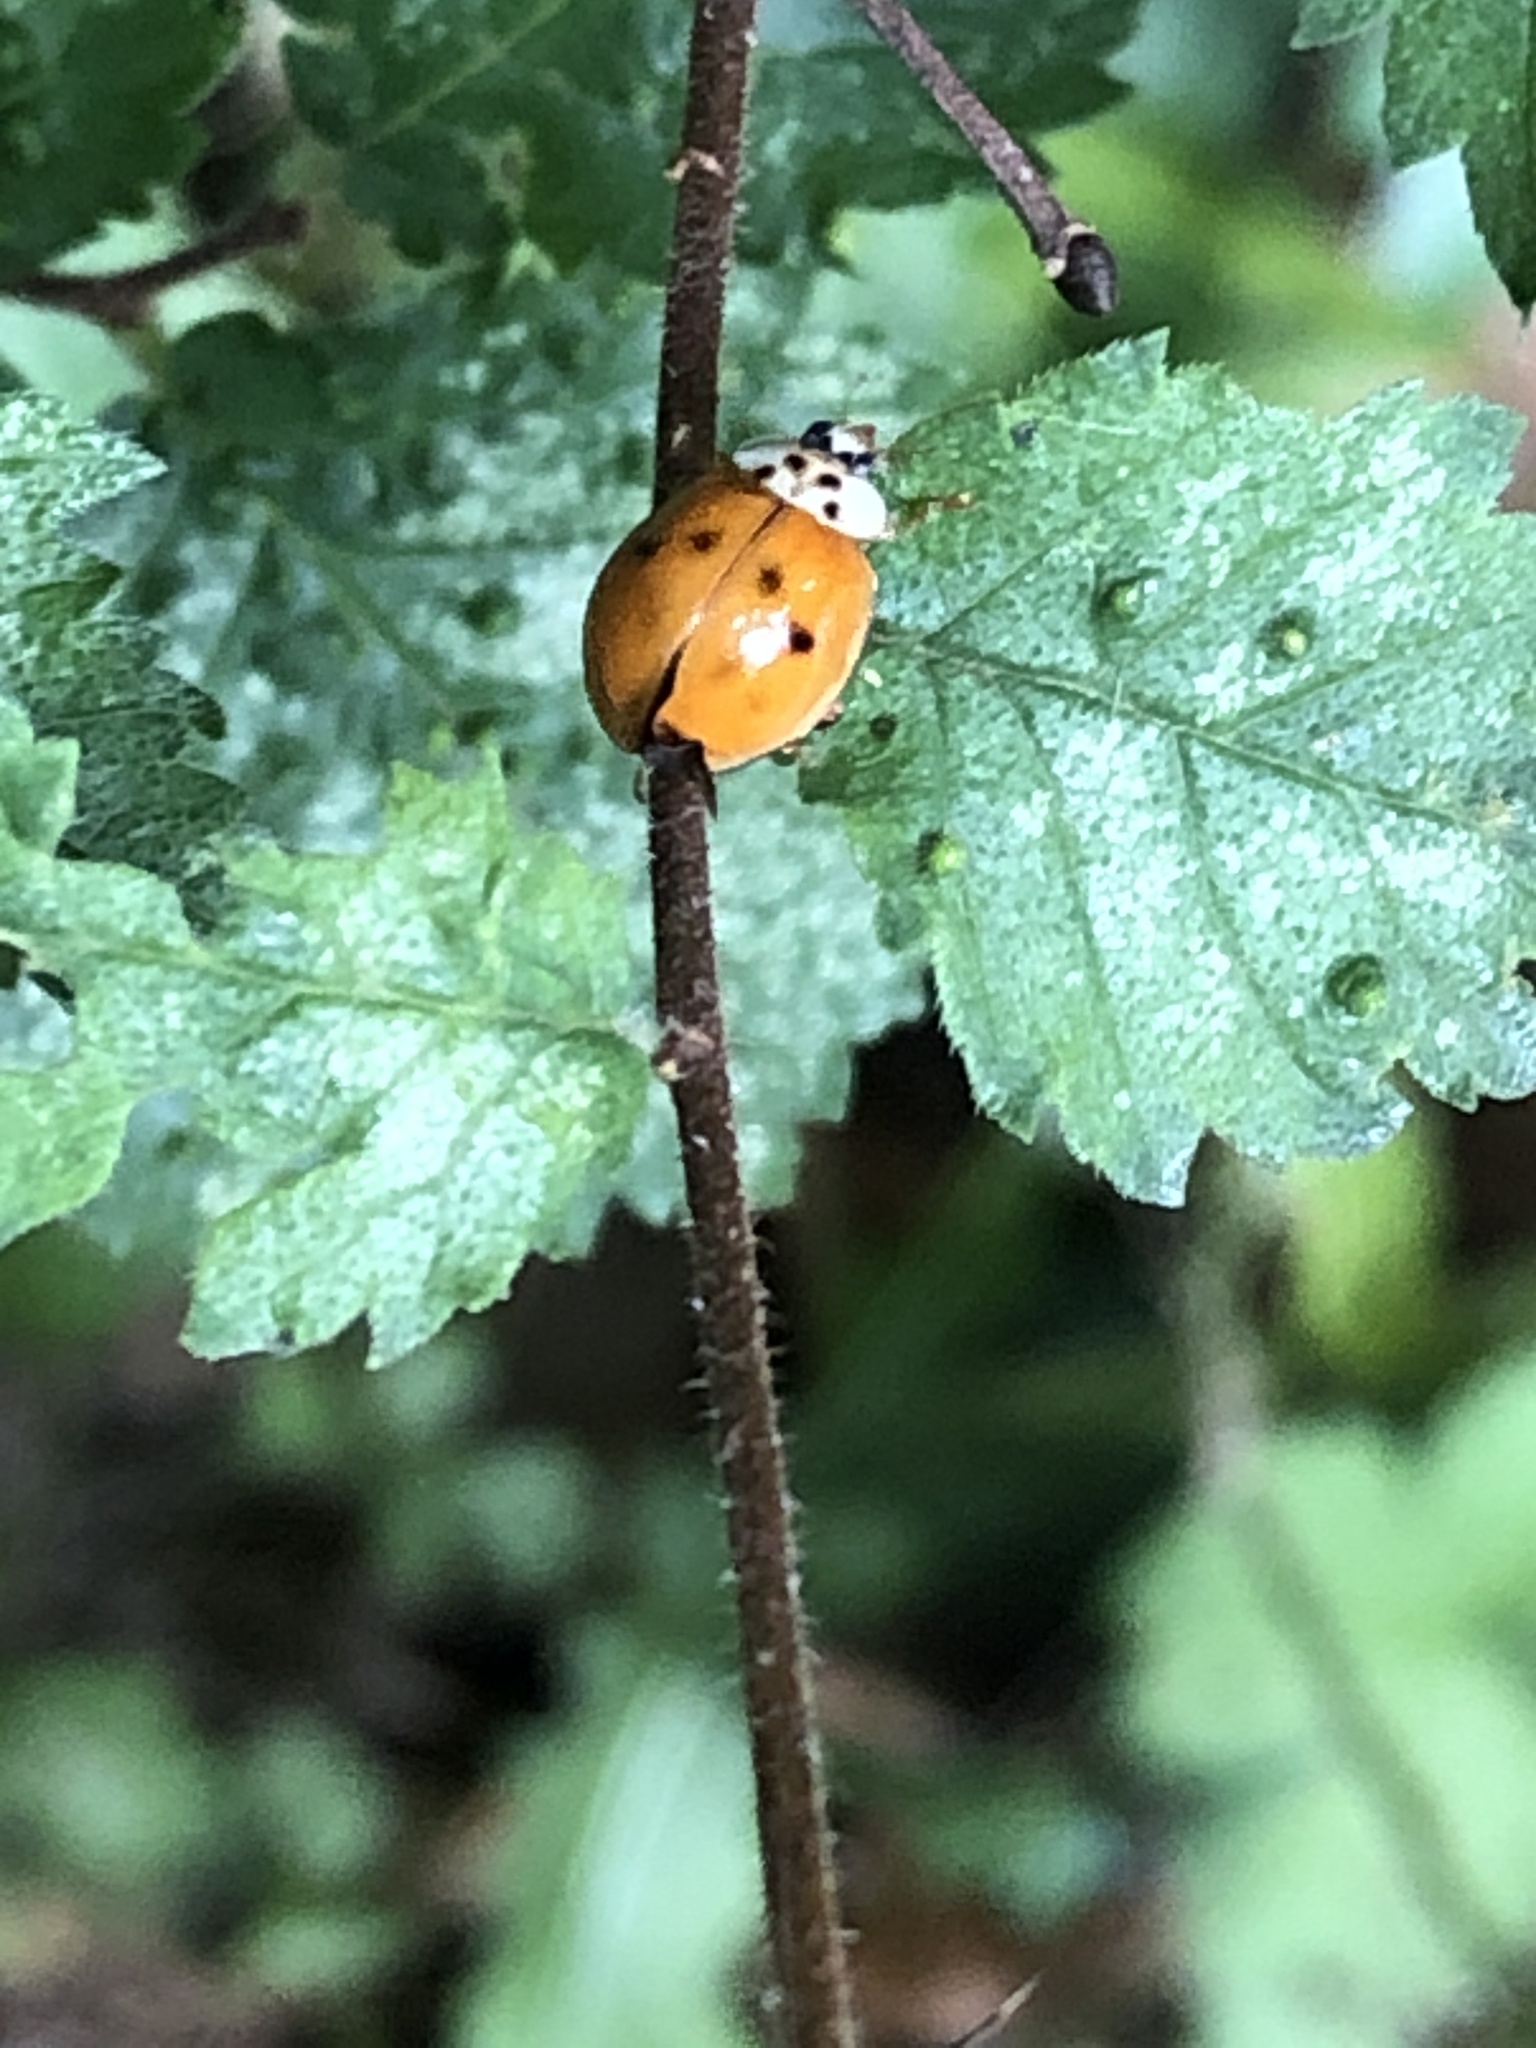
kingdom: Animalia
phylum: Arthropoda
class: Insecta
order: Coleoptera
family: Coccinellidae
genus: Harmonia
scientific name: Harmonia axyridis
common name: Harlequin ladybird
